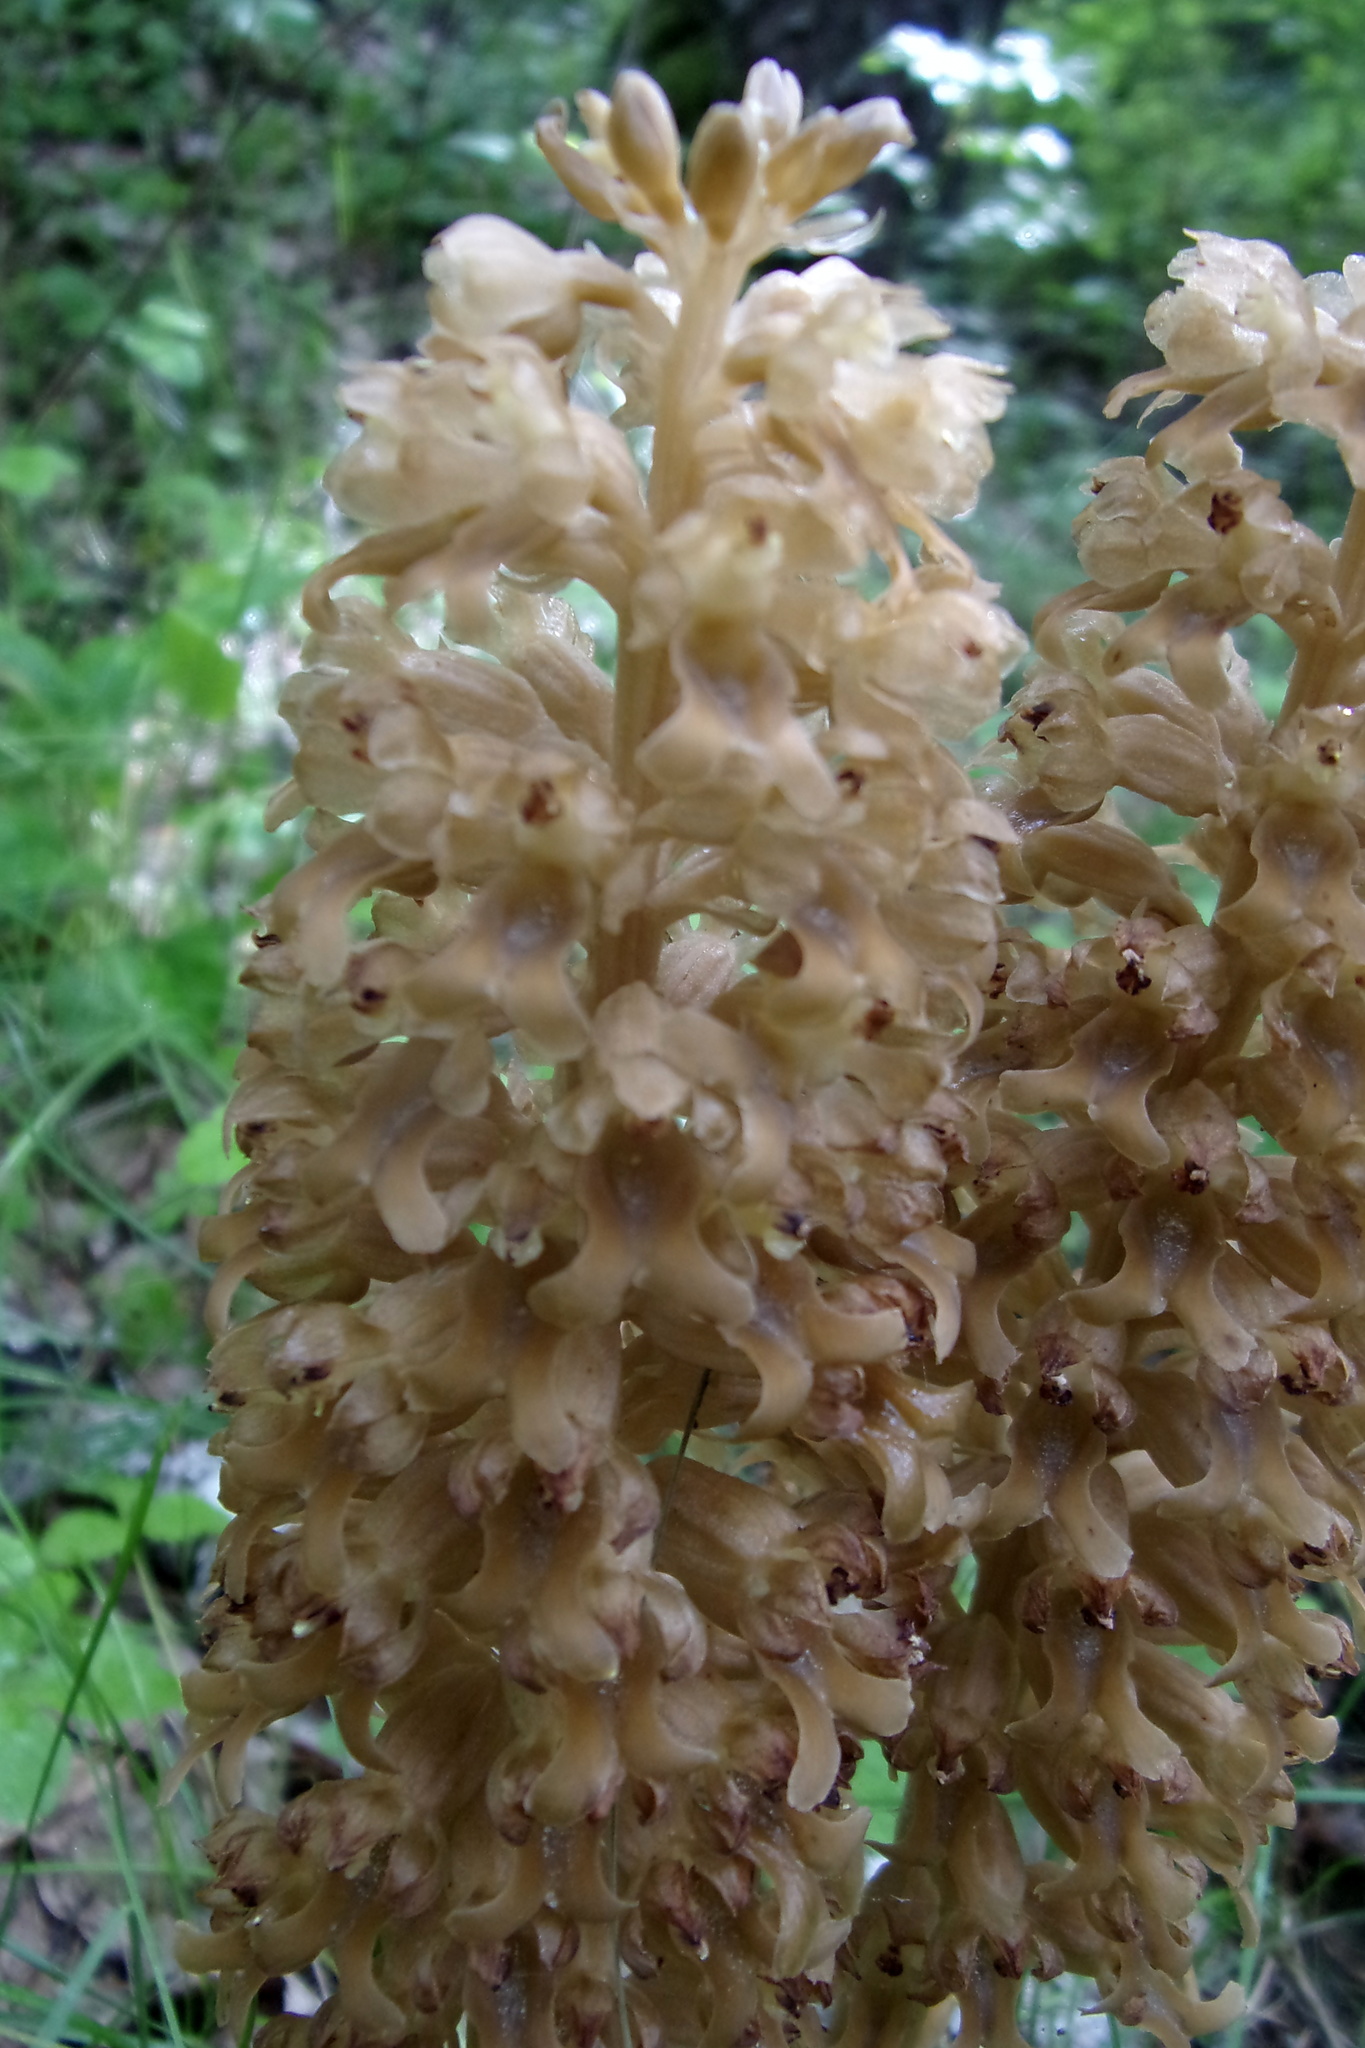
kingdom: Plantae
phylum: Tracheophyta
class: Liliopsida
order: Asparagales
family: Orchidaceae
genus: Neottia
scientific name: Neottia nidus-avis
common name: Bird's-nest orchid
